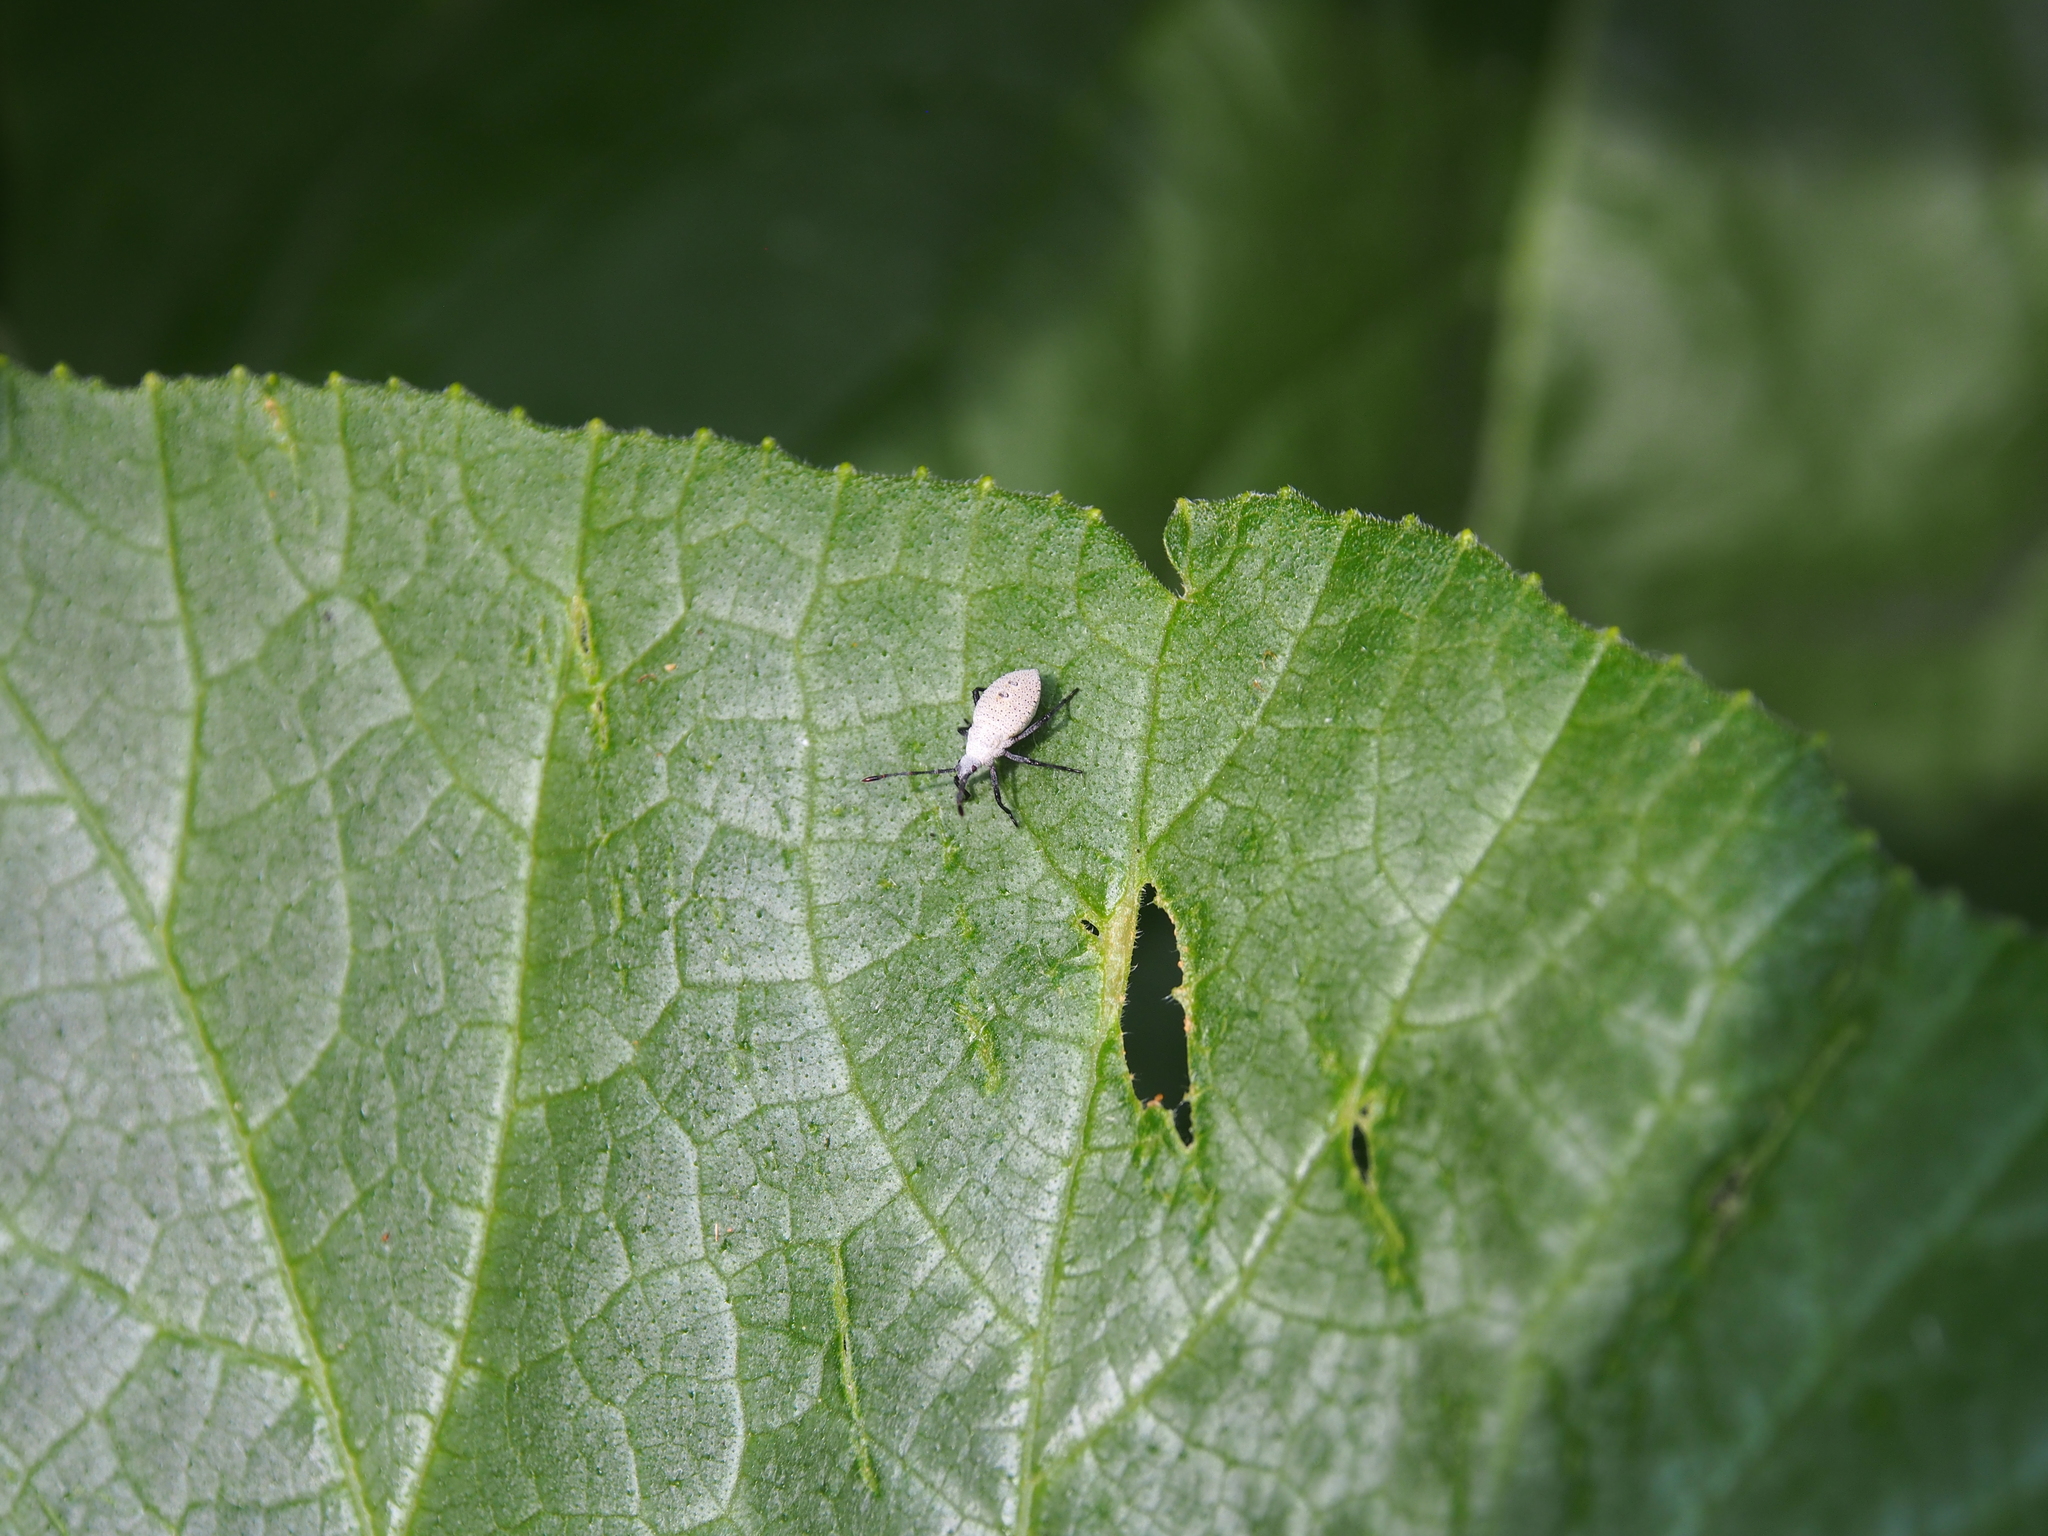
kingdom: Animalia
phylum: Arthropoda
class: Insecta
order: Hemiptera
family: Coreidae
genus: Anasa
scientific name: Anasa tristis
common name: Squash bug
